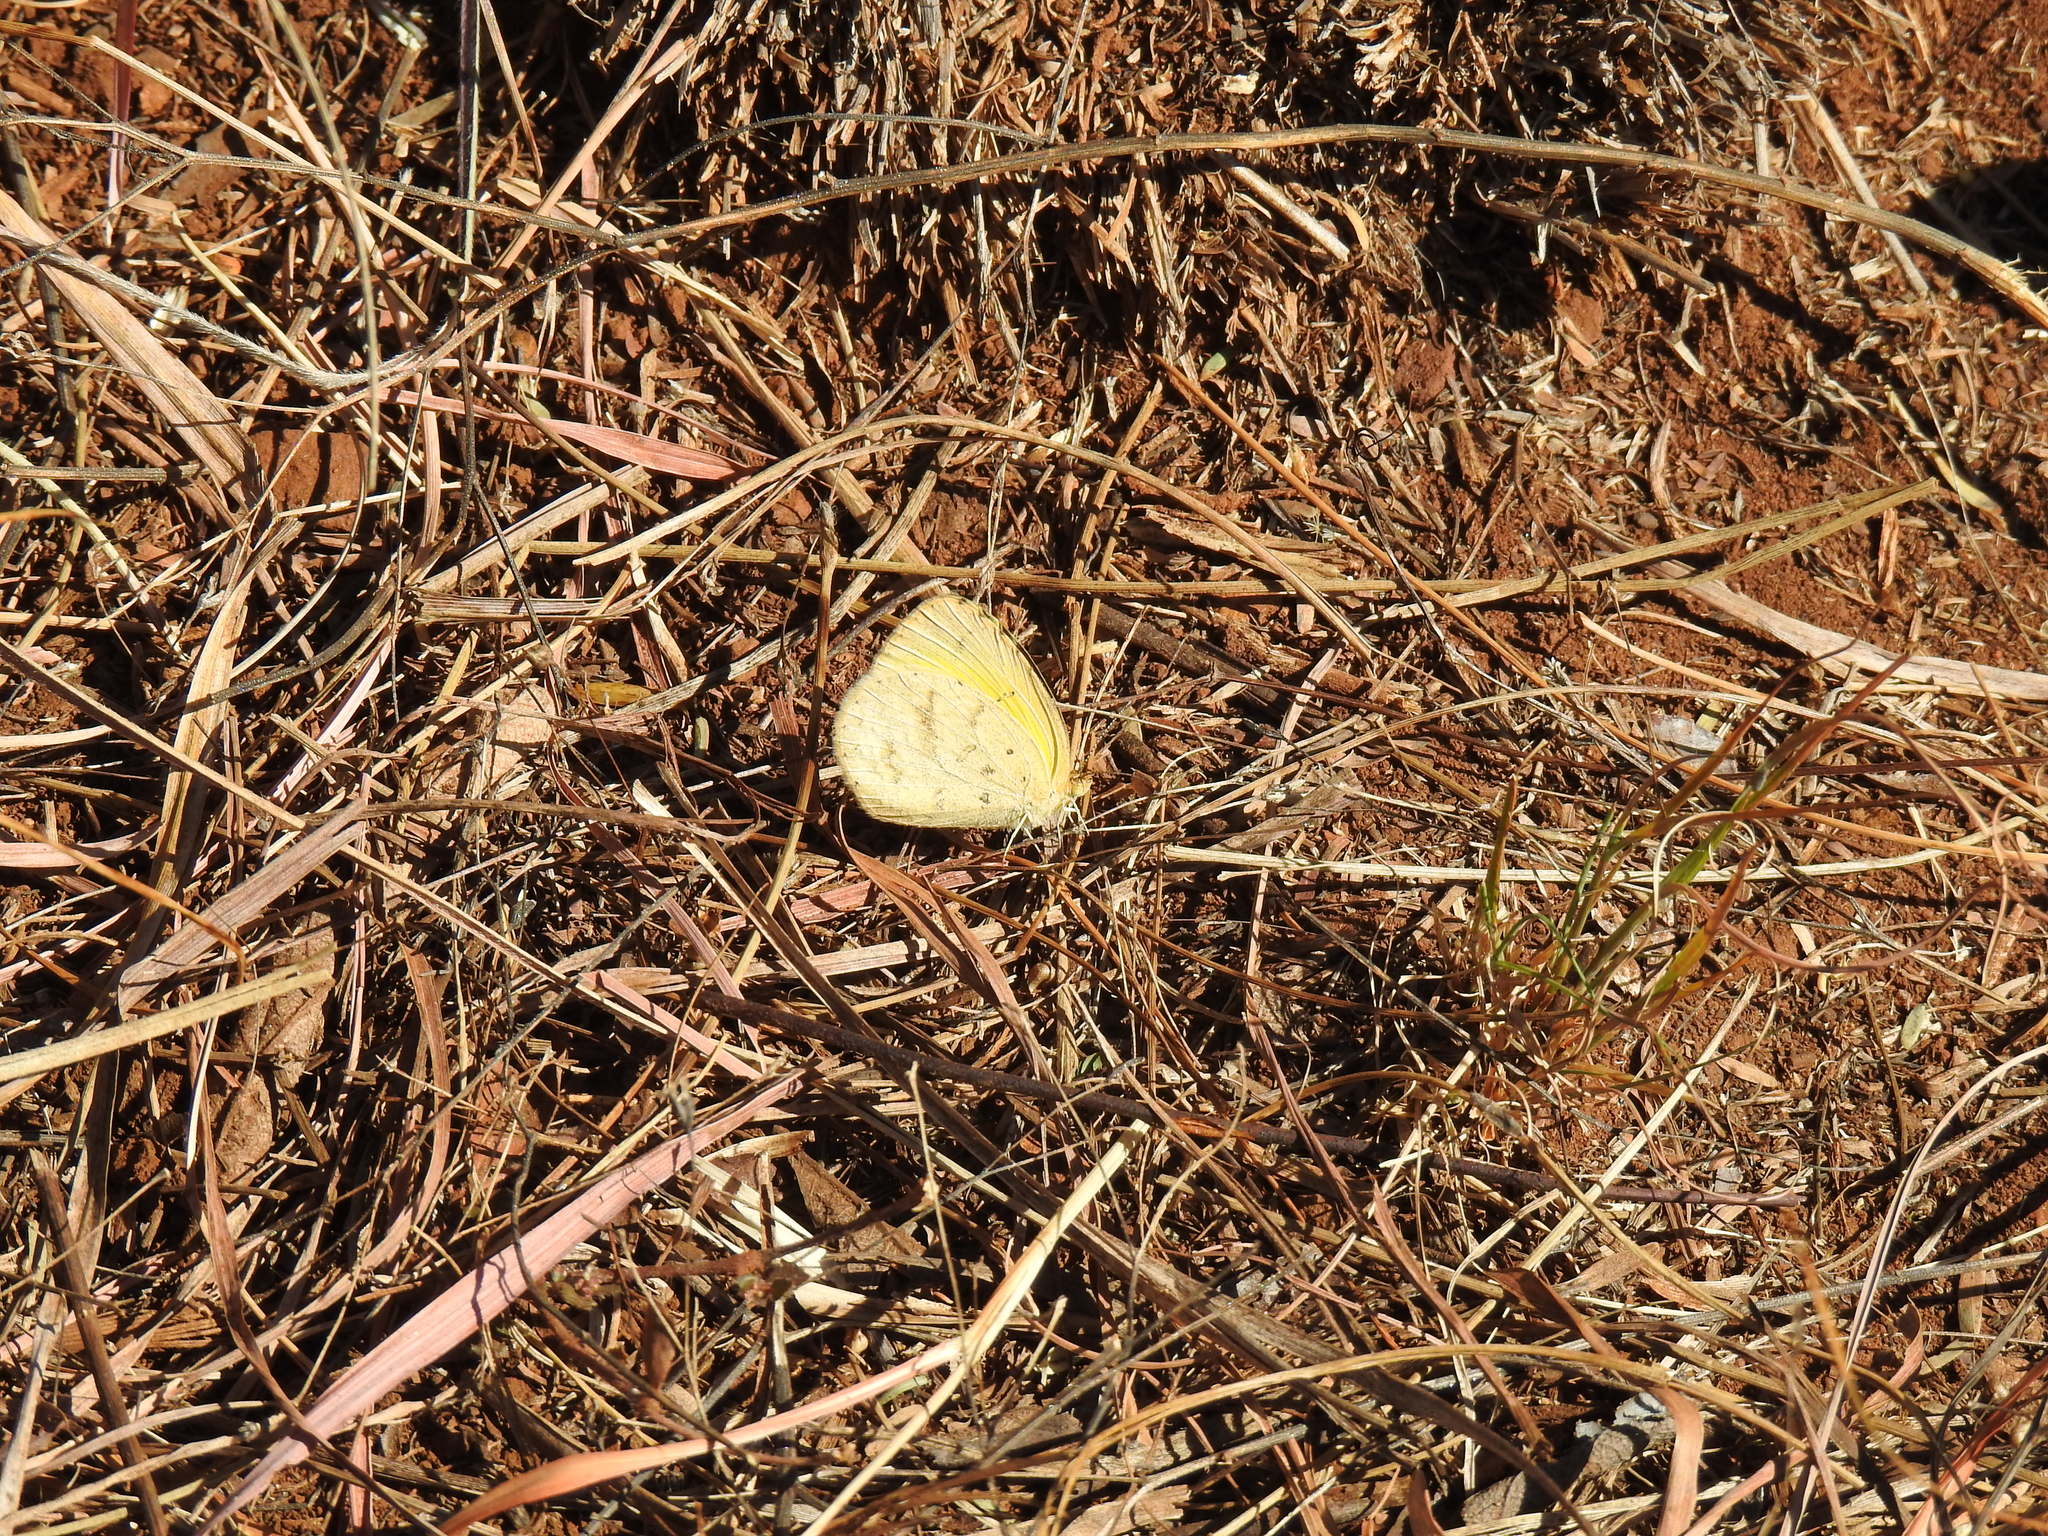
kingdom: Animalia
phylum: Arthropoda
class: Insecta
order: Lepidoptera
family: Pieridae
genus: Eurema
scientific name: Eurema brigitta
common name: Small grass yellow
